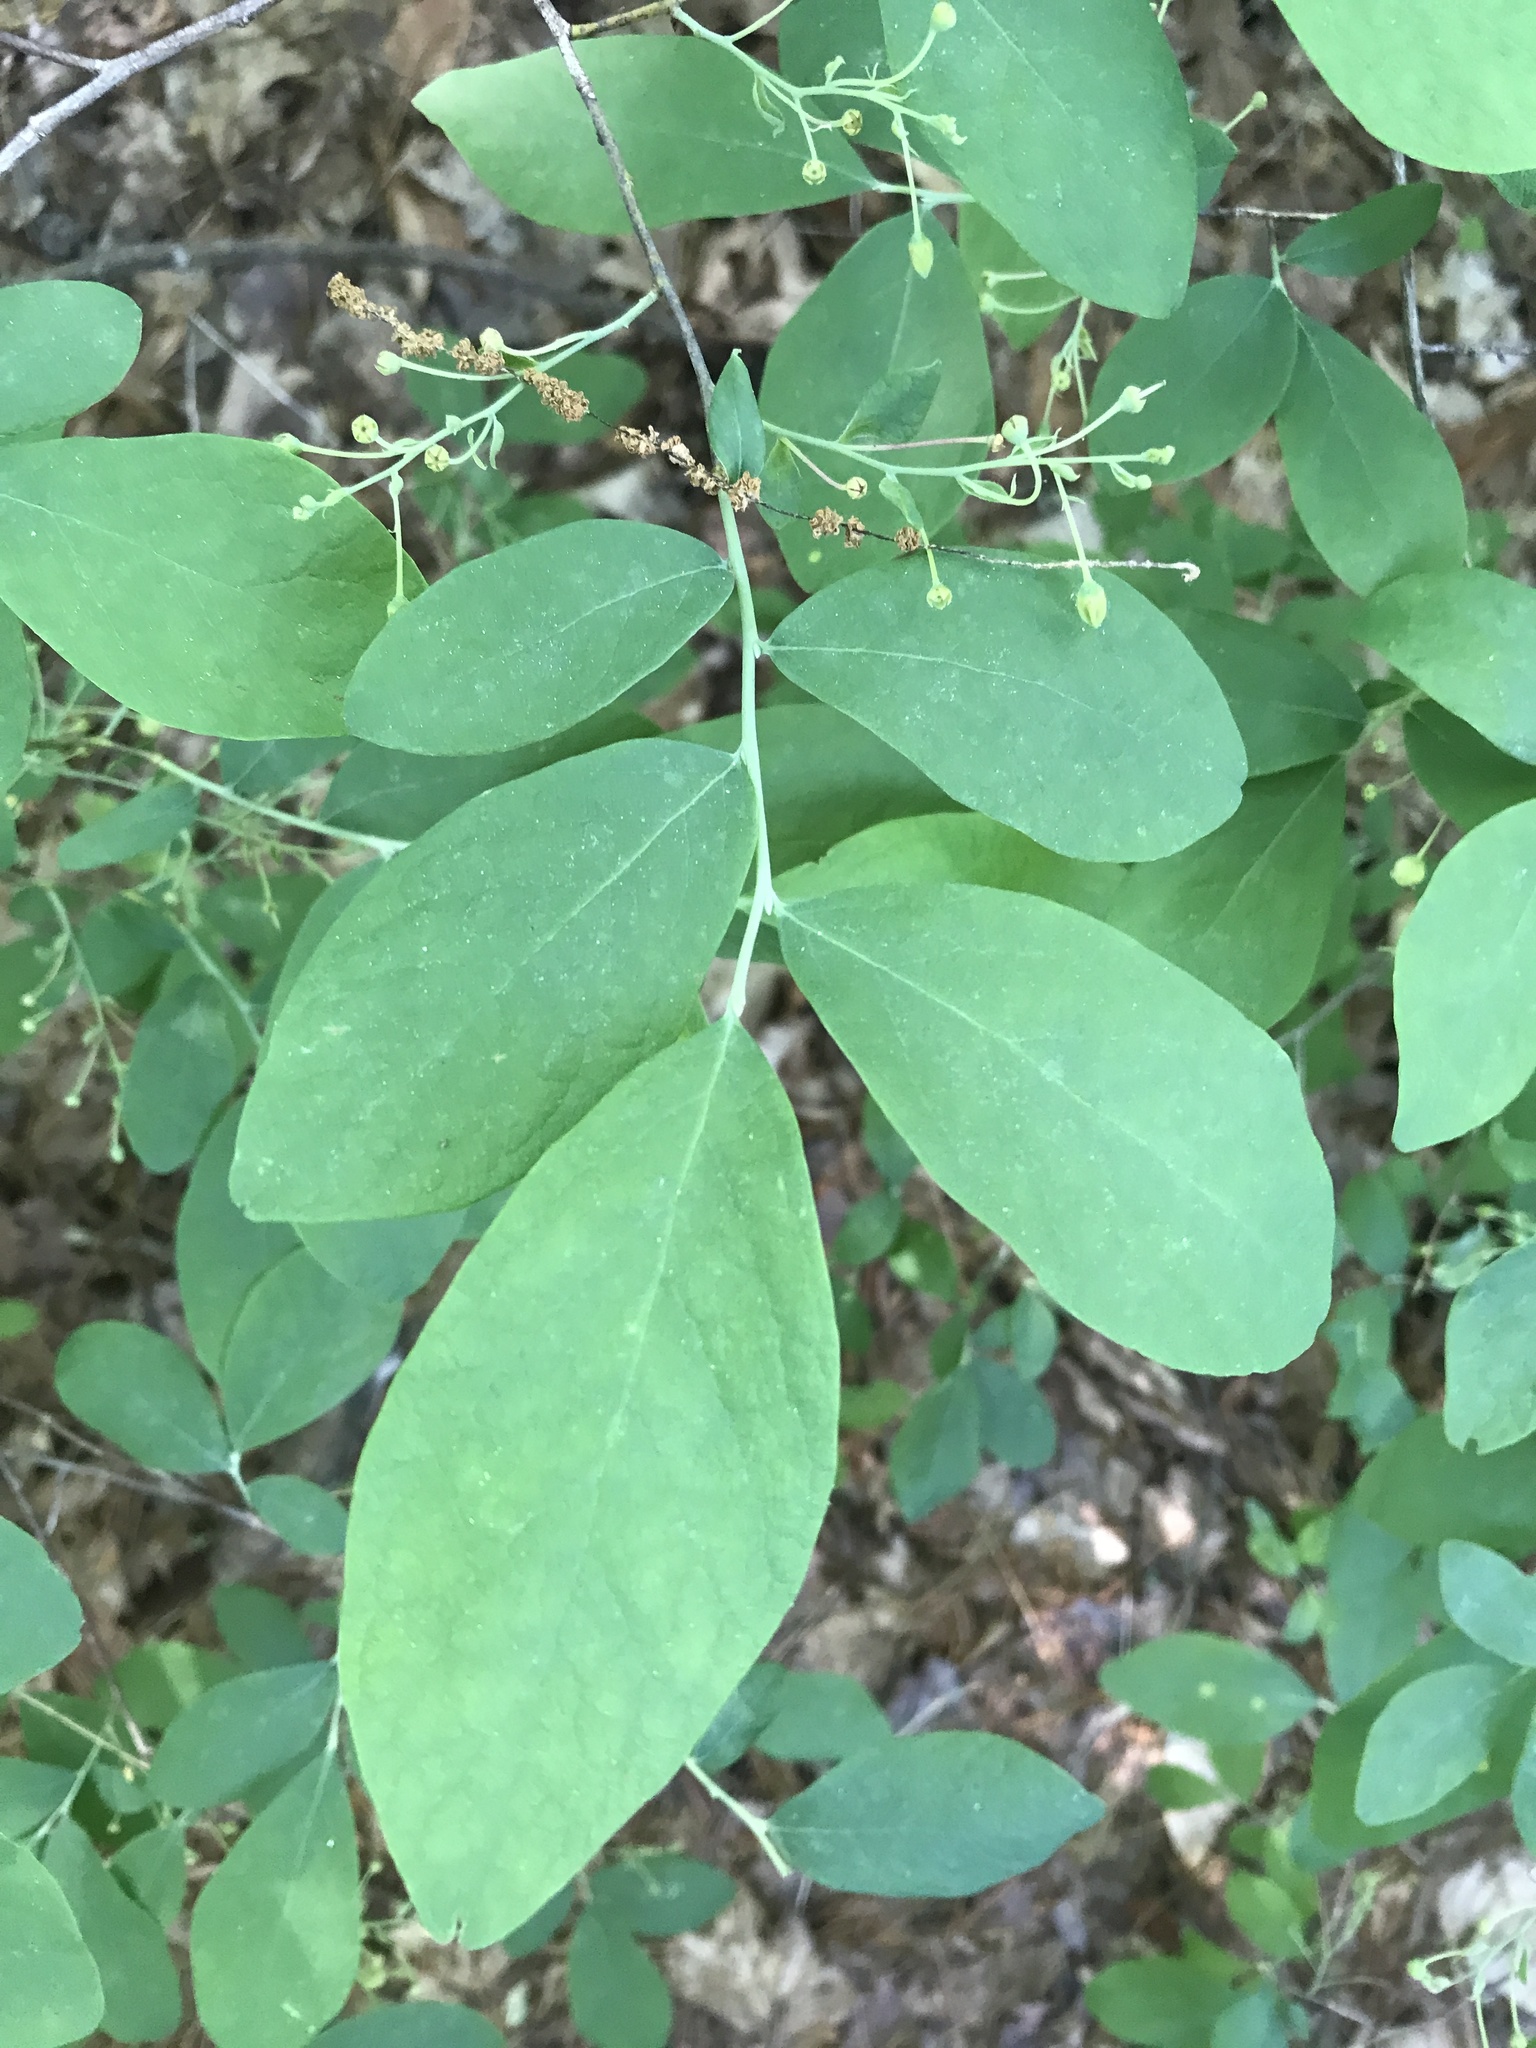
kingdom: Plantae
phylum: Tracheophyta
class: Magnoliopsida
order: Ericales
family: Ericaceae
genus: Gaylussacia
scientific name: Gaylussacia frondosa
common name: Dangleberry
